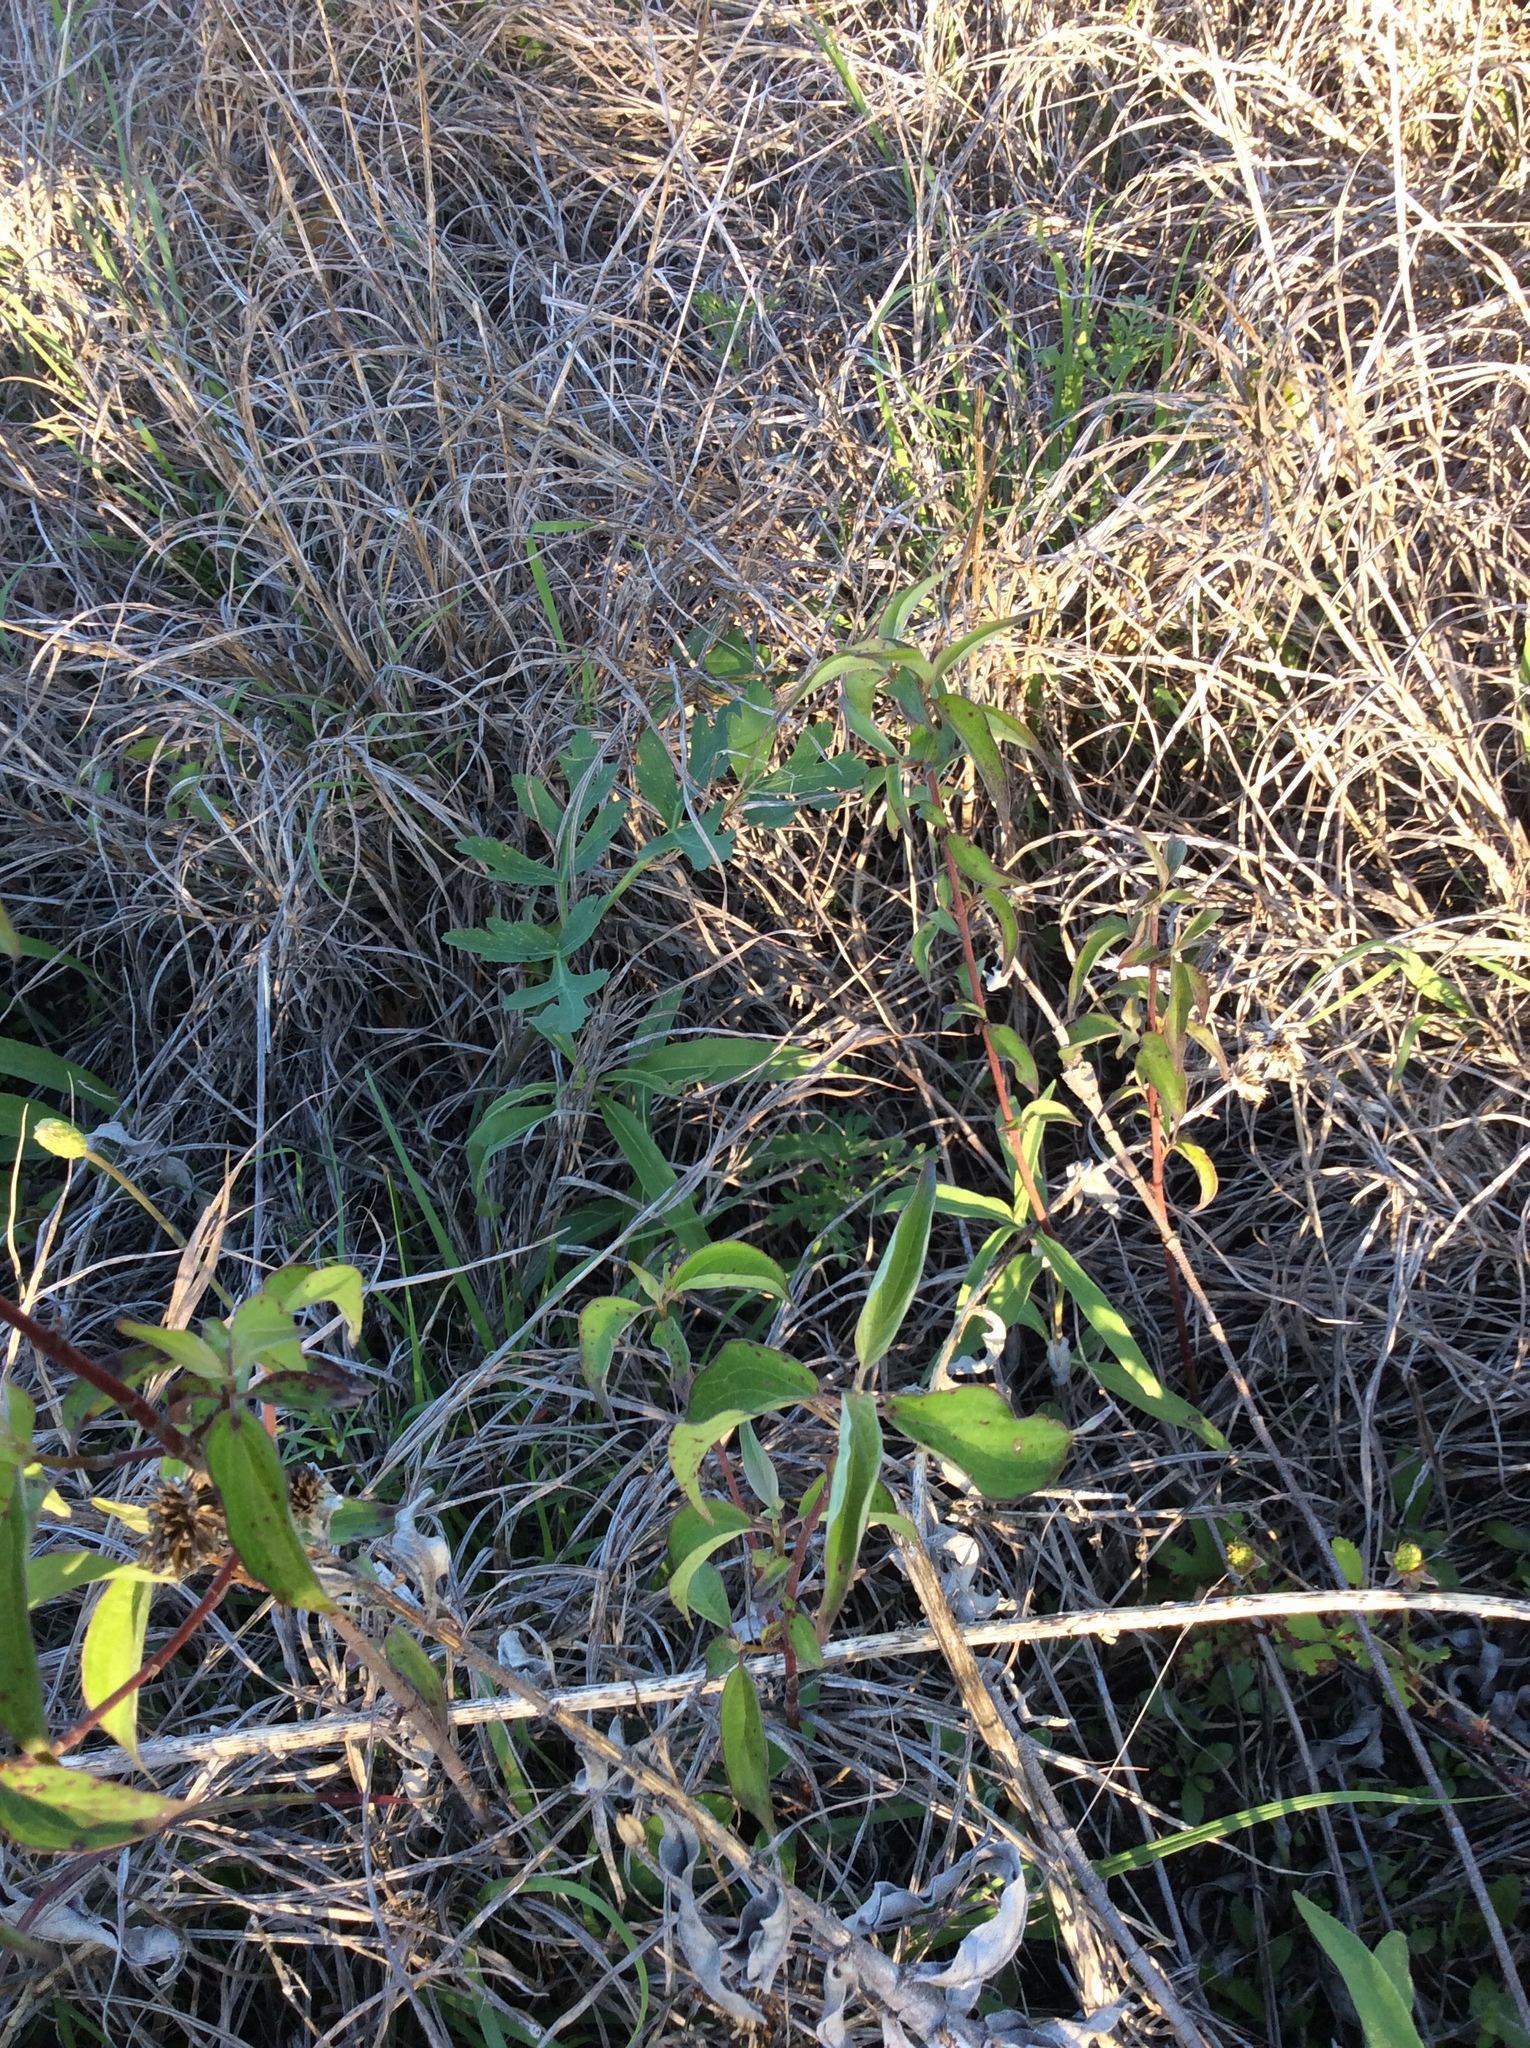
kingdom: Plantae
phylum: Tracheophyta
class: Magnoliopsida
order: Cornales
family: Cornaceae
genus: Cornus
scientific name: Cornus drummondii
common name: Rough-leaf dogwood
